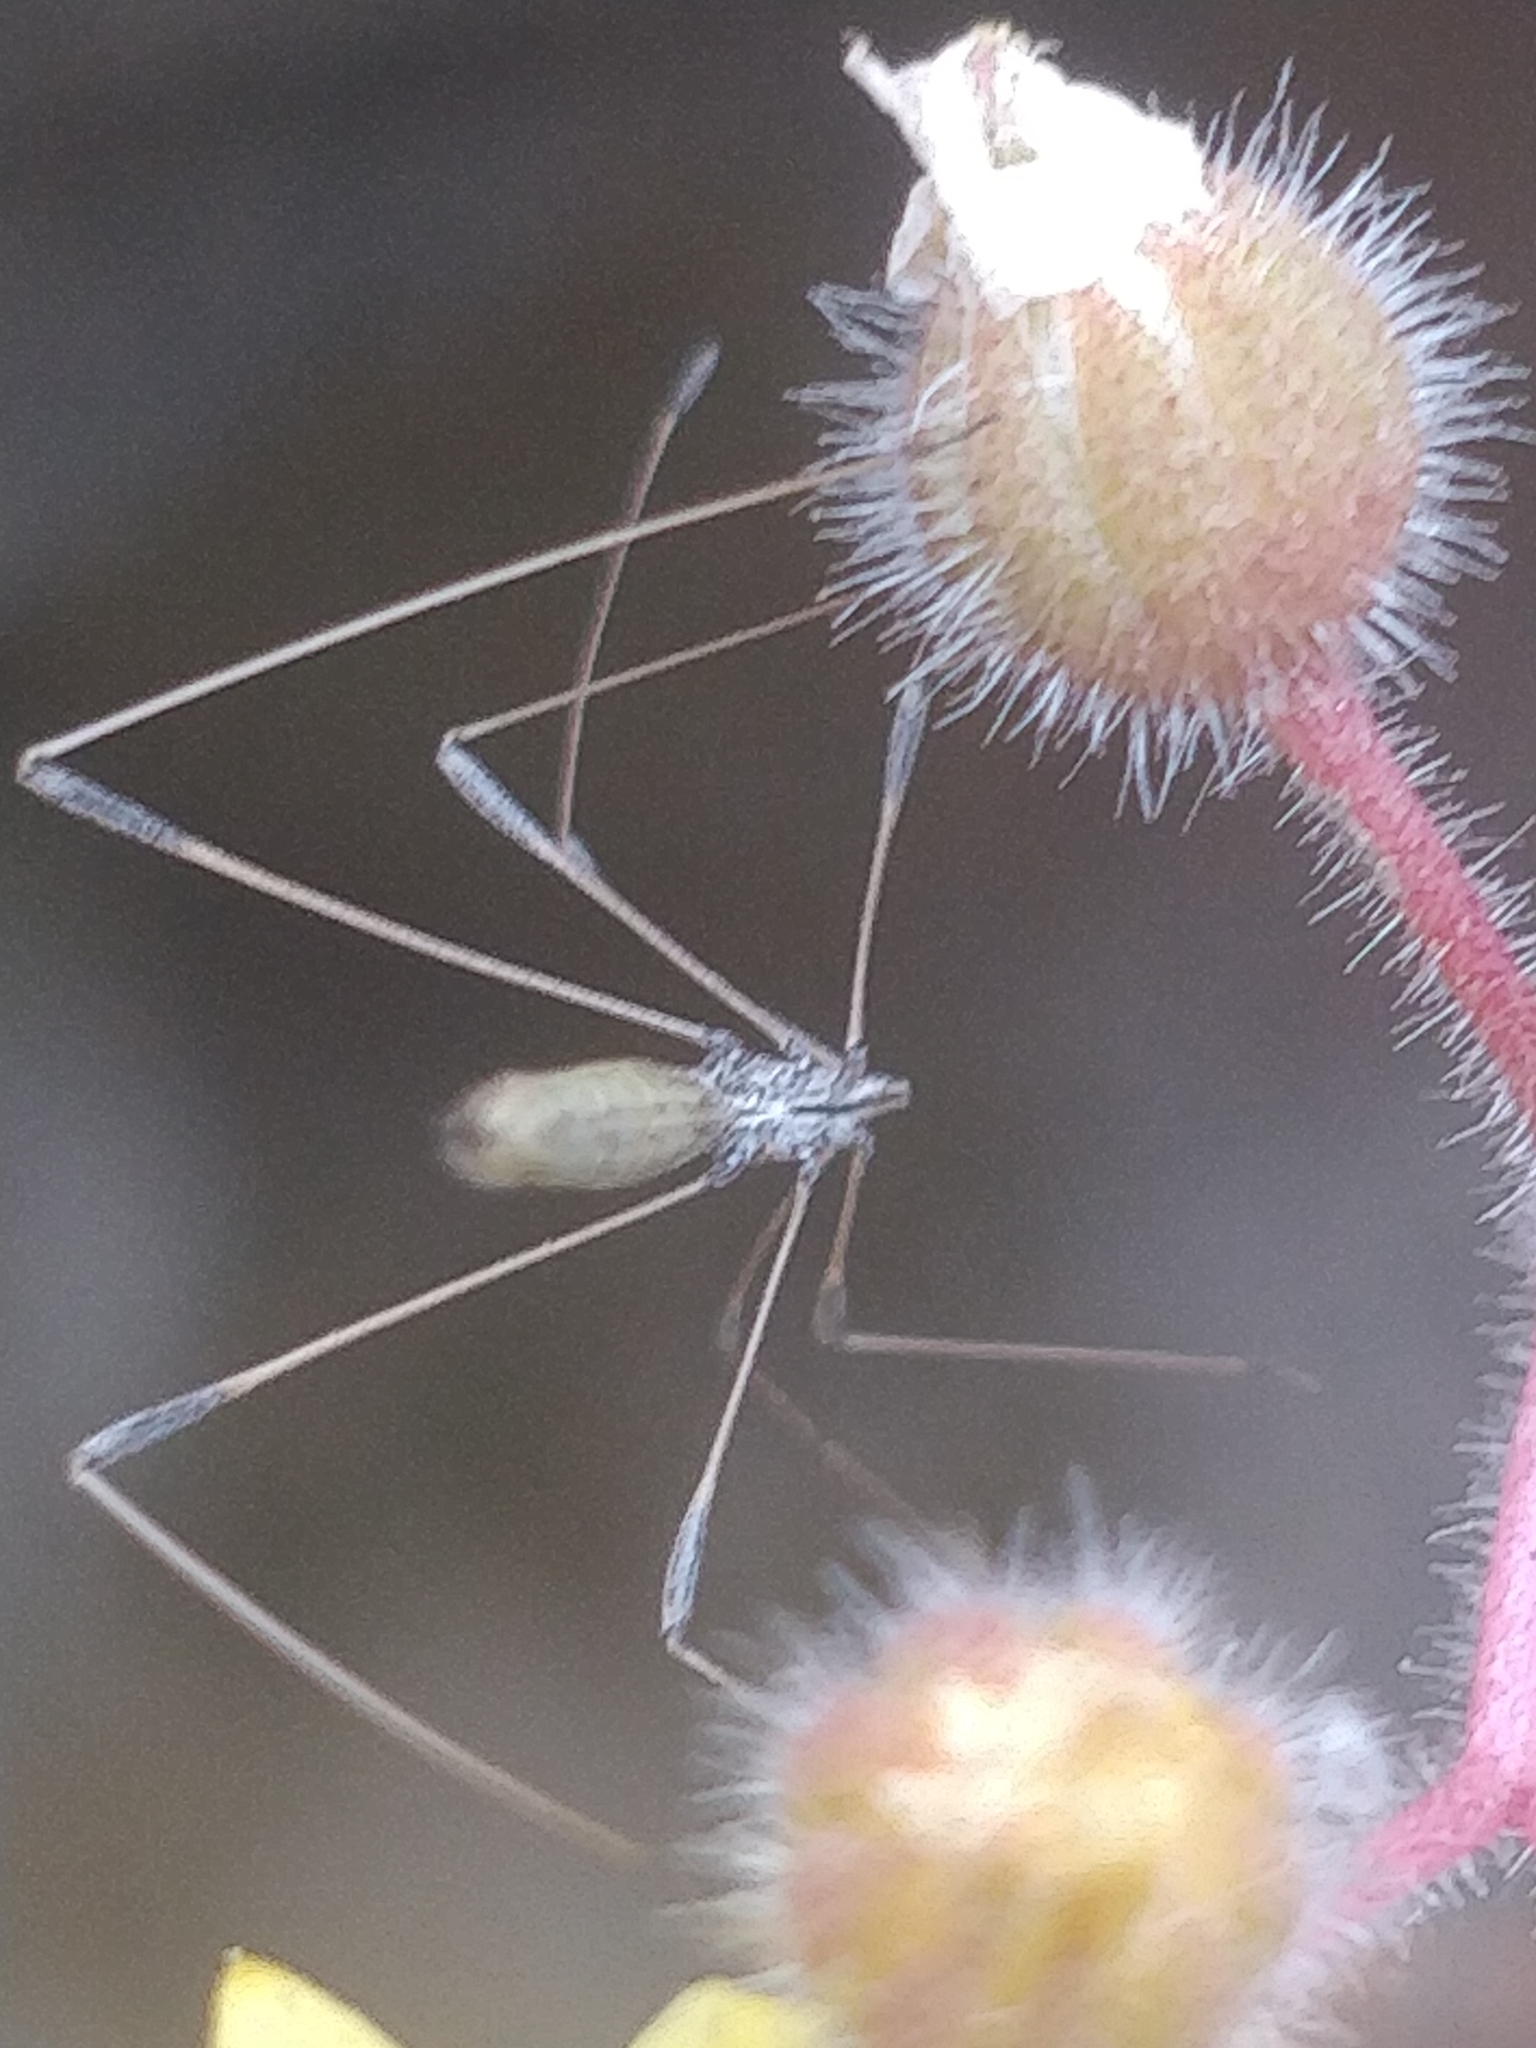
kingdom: Animalia
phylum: Arthropoda
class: Insecta
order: Hemiptera
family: Berytidae
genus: Neides
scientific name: Neides aduncus
